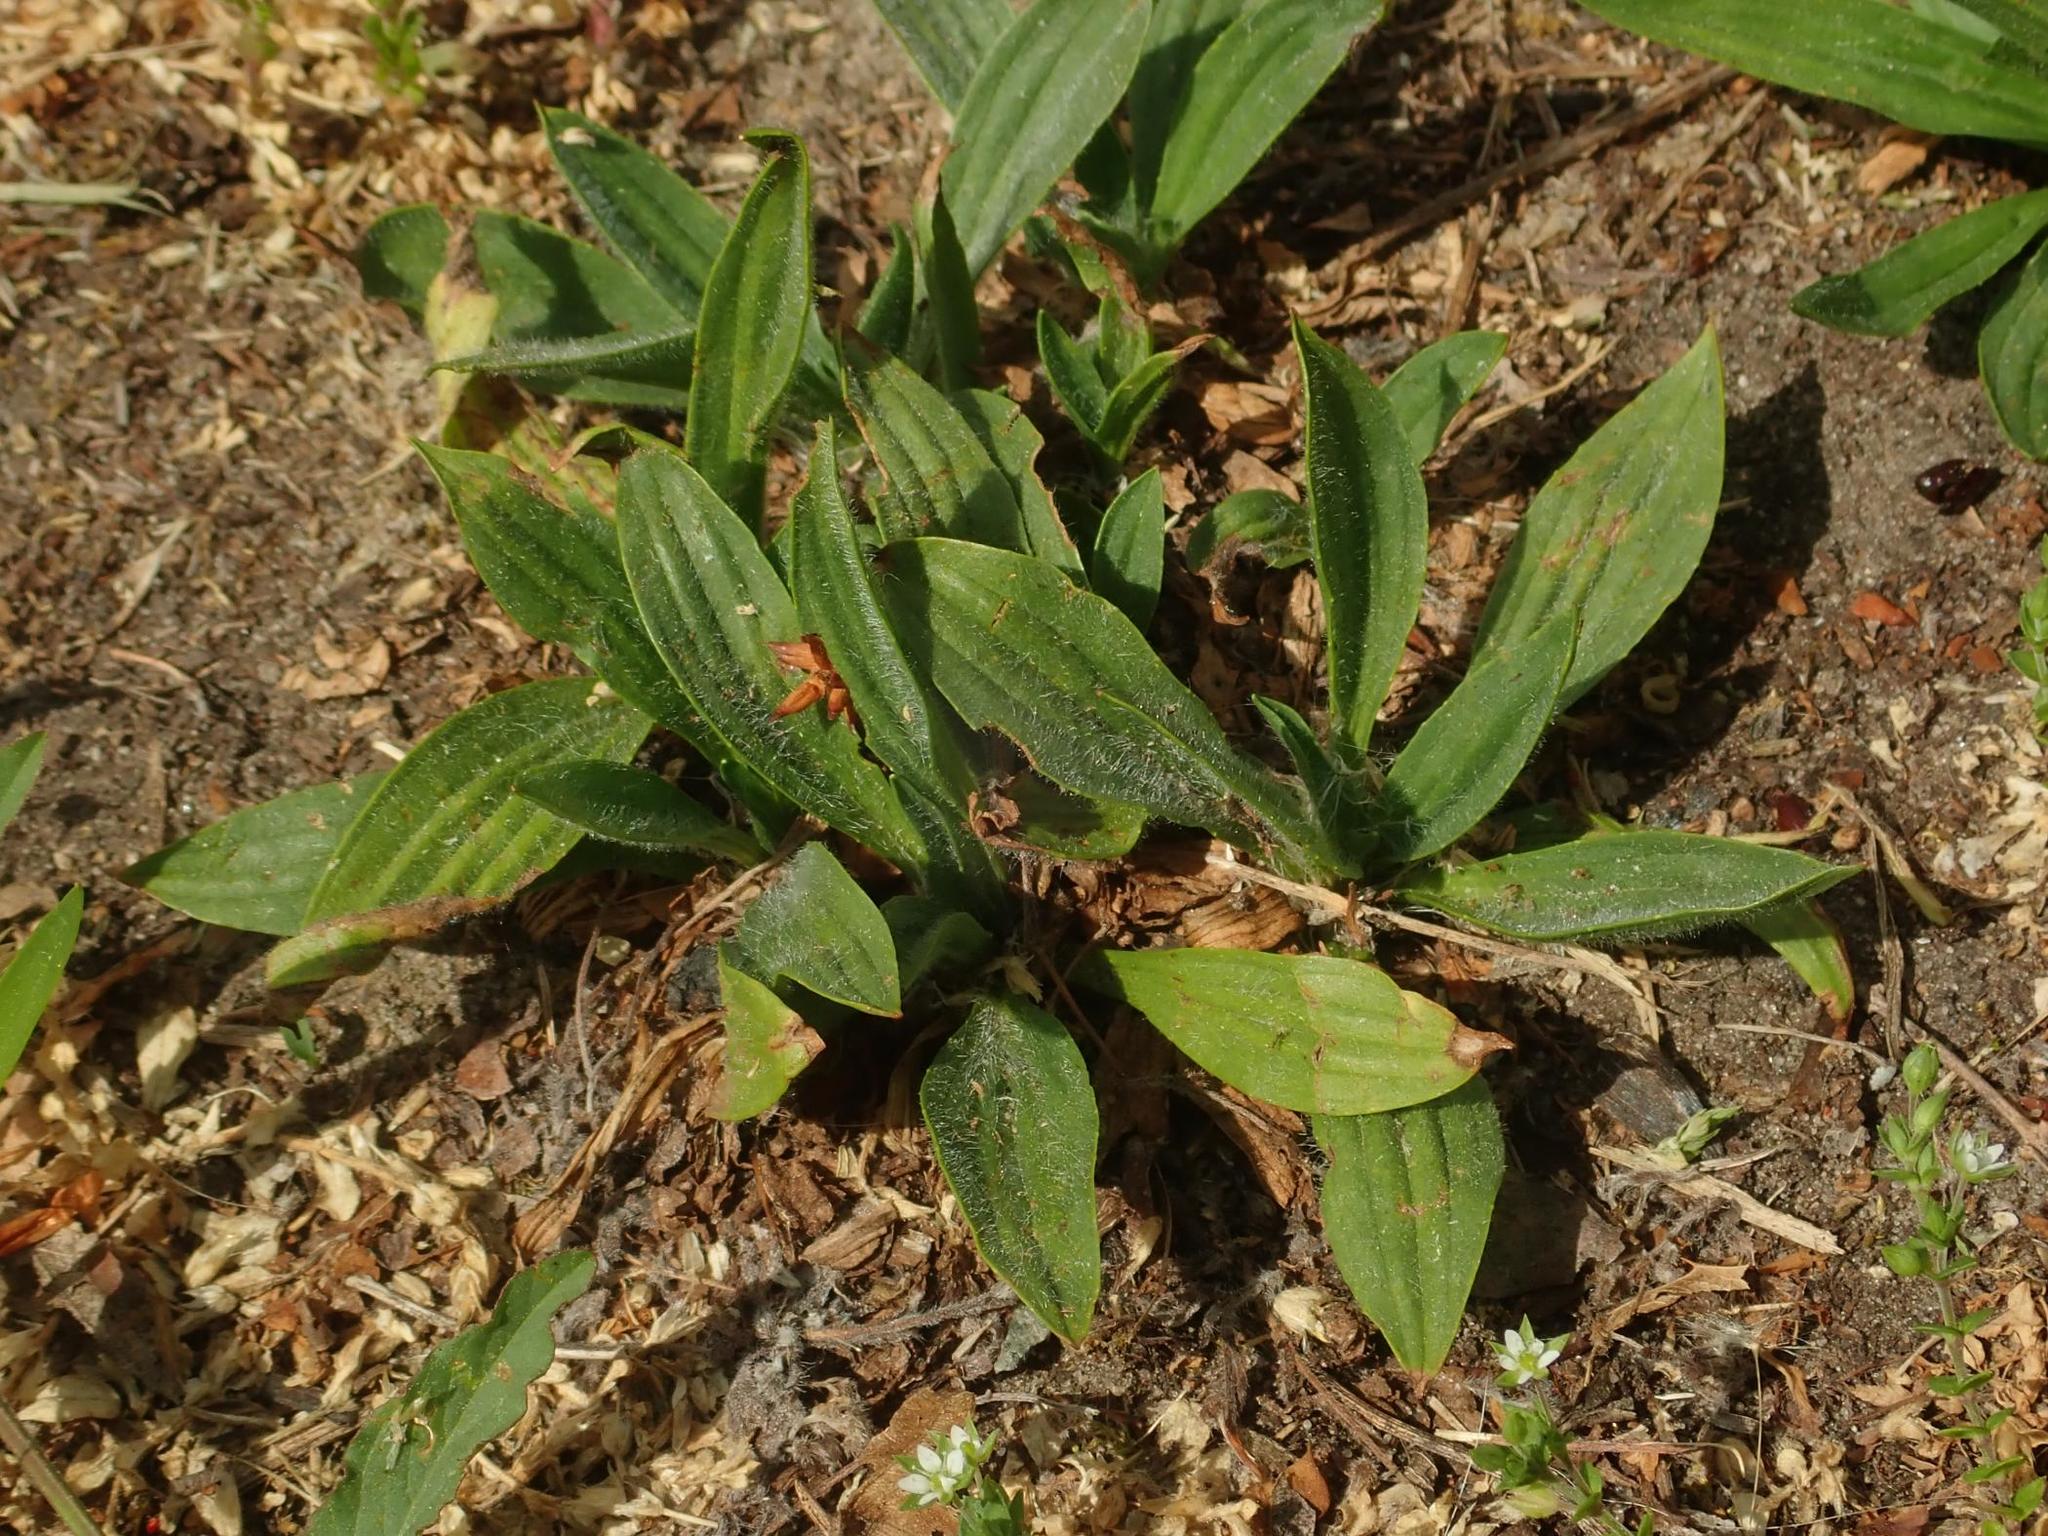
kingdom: Plantae
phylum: Tracheophyta
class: Magnoliopsida
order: Lamiales
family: Plantaginaceae
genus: Plantago
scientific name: Plantago lanceolata
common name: Ribwort plantain
